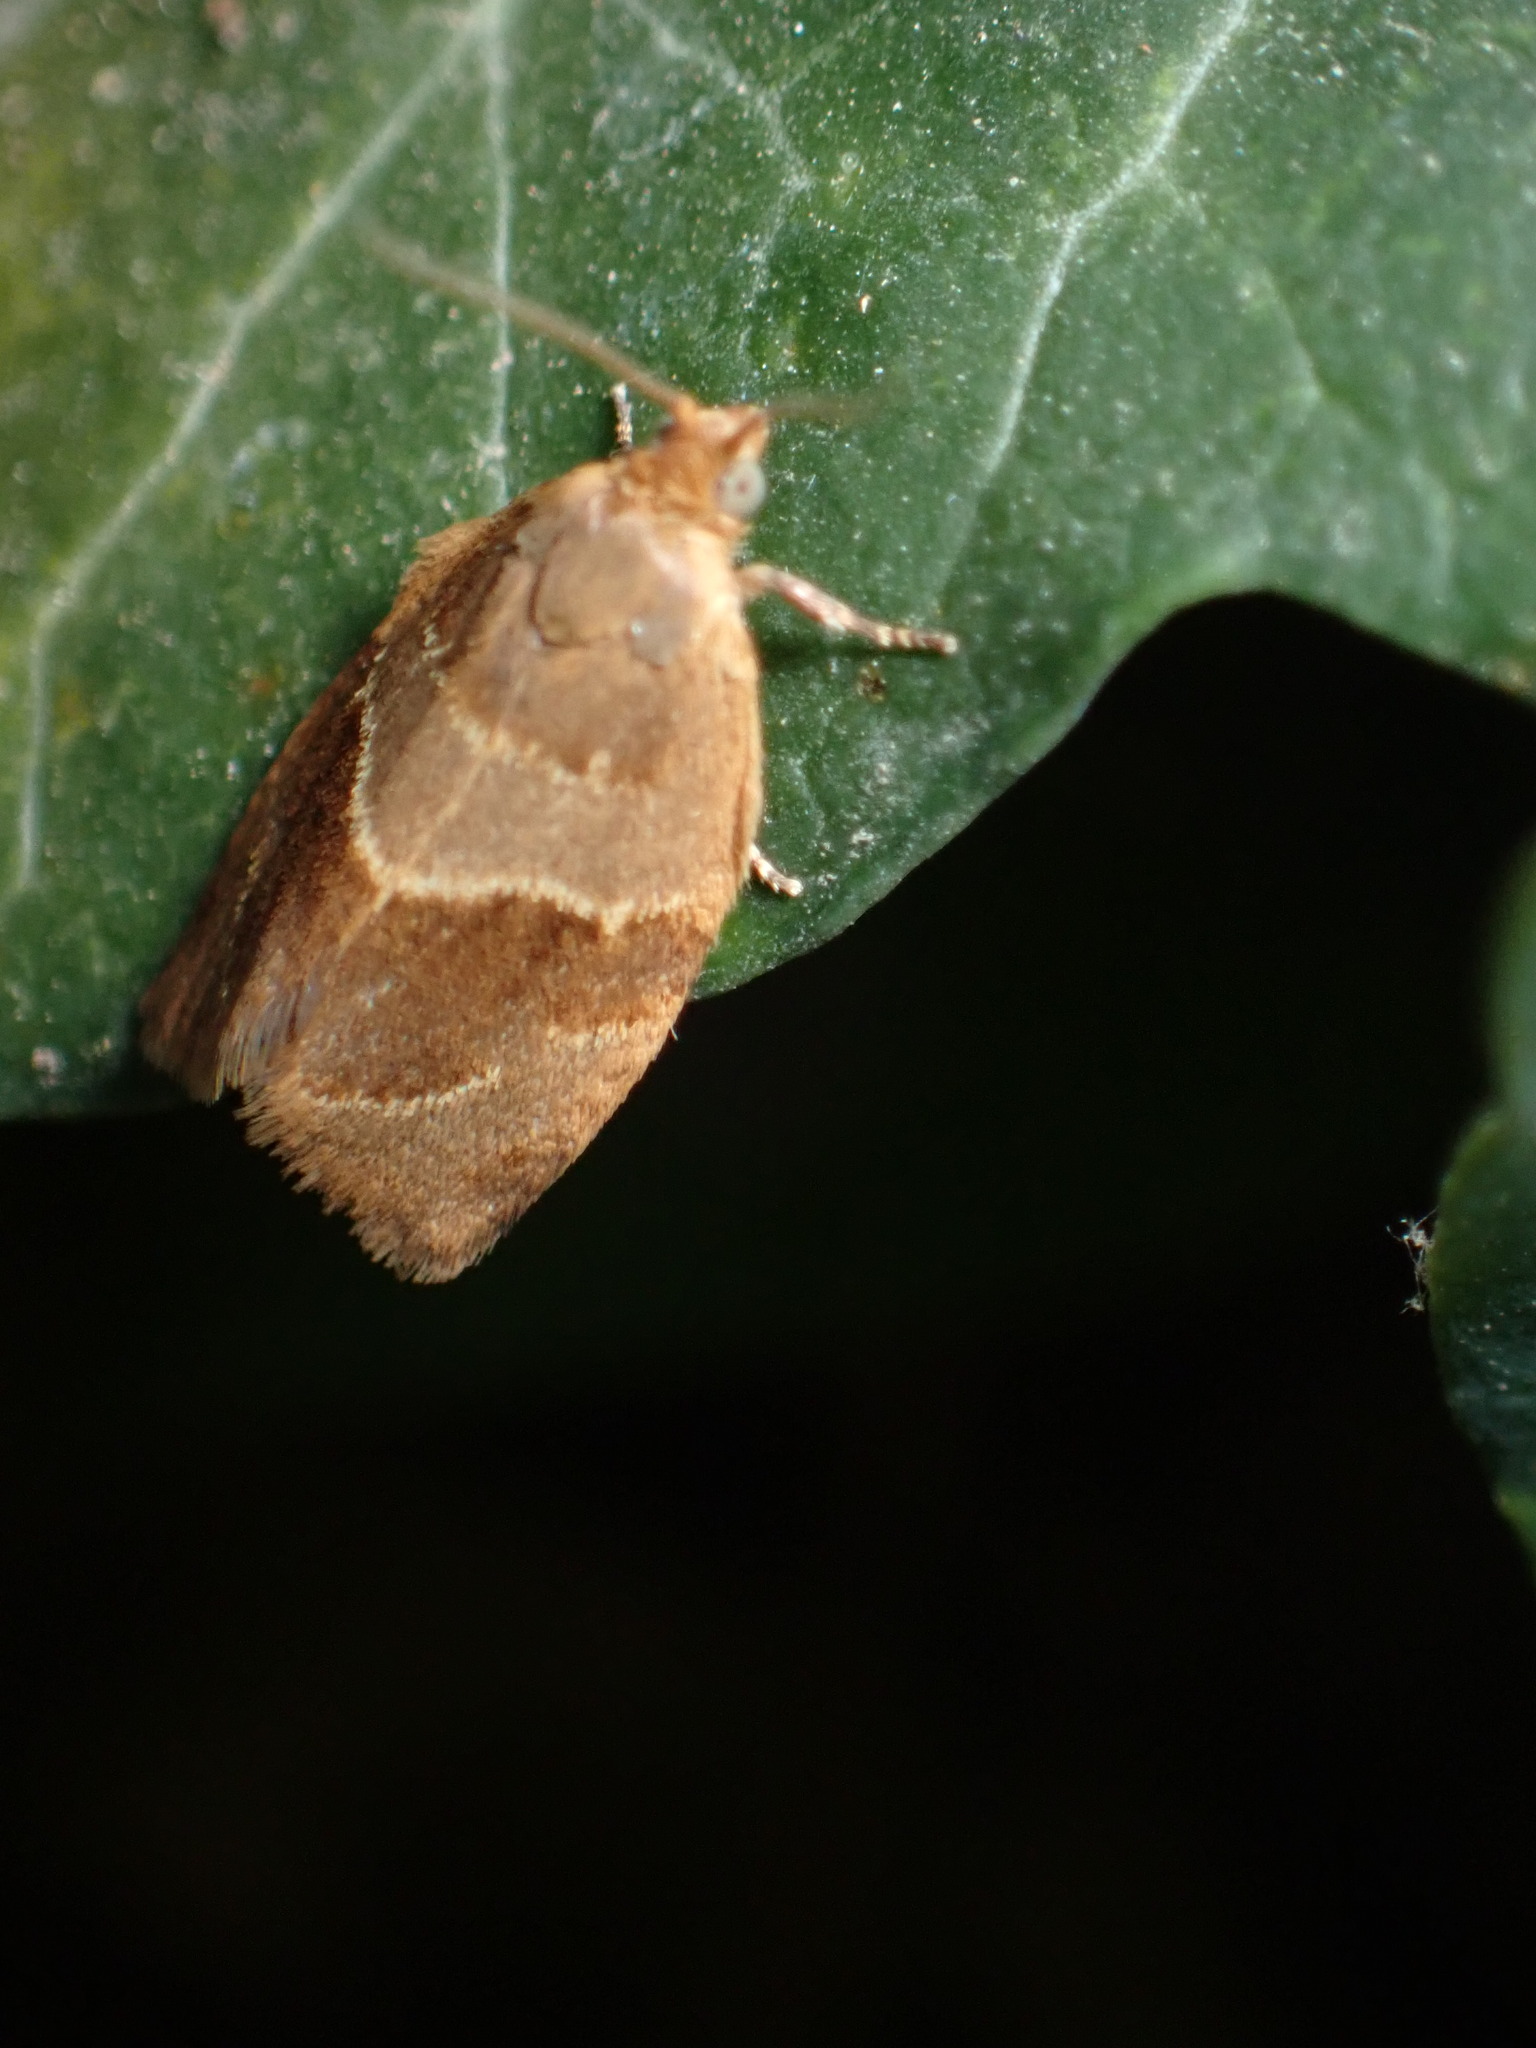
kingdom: Animalia
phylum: Arthropoda
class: Insecta
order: Lepidoptera
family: Tortricidae
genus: Clepsis
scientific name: Clepsis dumicolana
